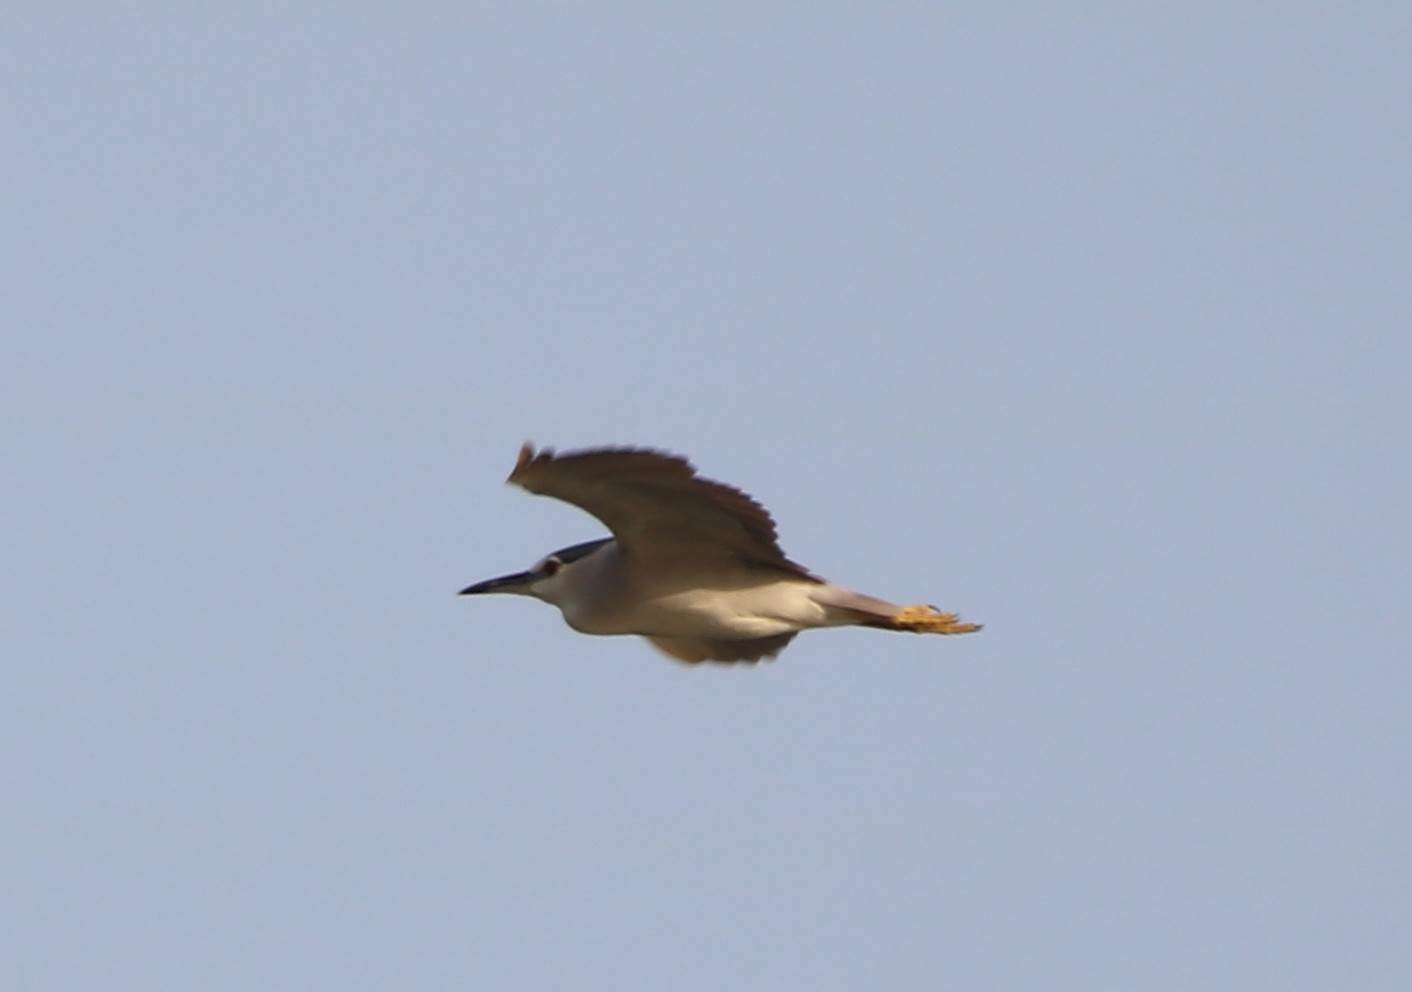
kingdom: Animalia
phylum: Chordata
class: Aves
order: Pelecaniformes
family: Ardeidae
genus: Nycticorax
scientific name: Nycticorax nycticorax
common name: Black-crowned night heron
